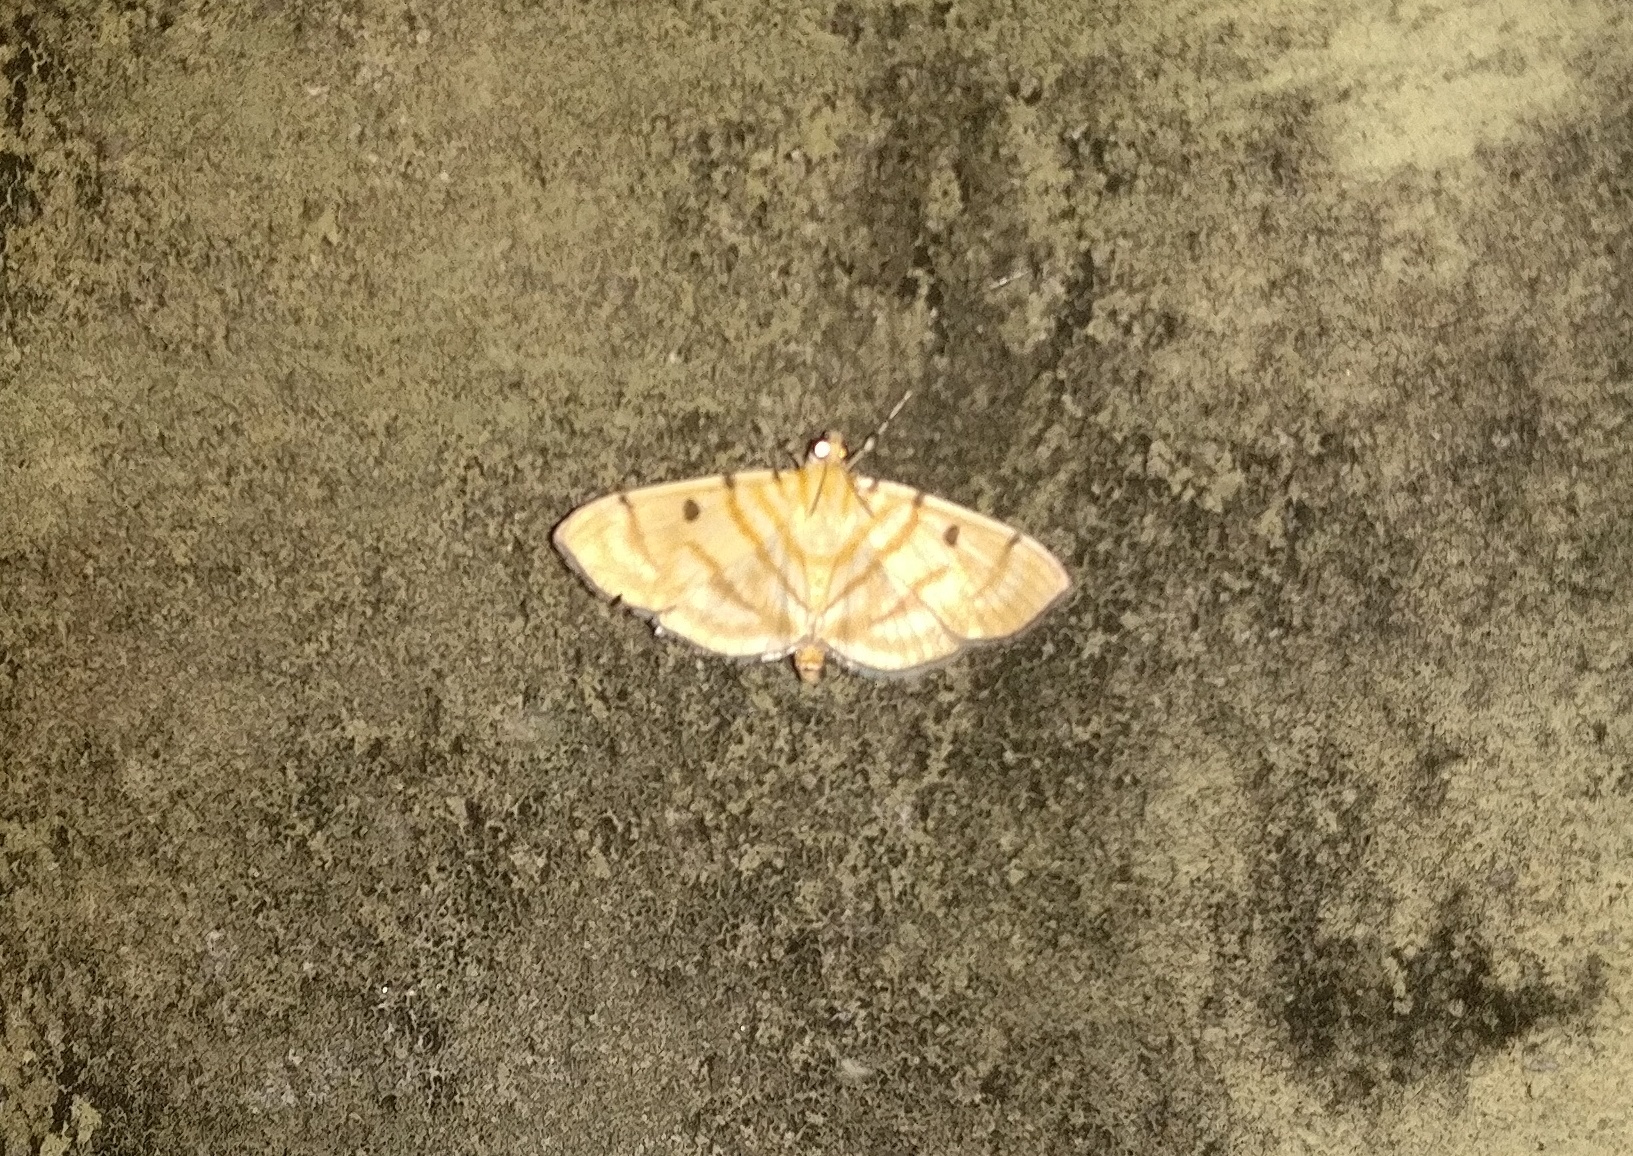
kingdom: Animalia
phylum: Arthropoda
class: Insecta
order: Lepidoptera
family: Crambidae
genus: Orthospila
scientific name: Orthospila orissusalis
